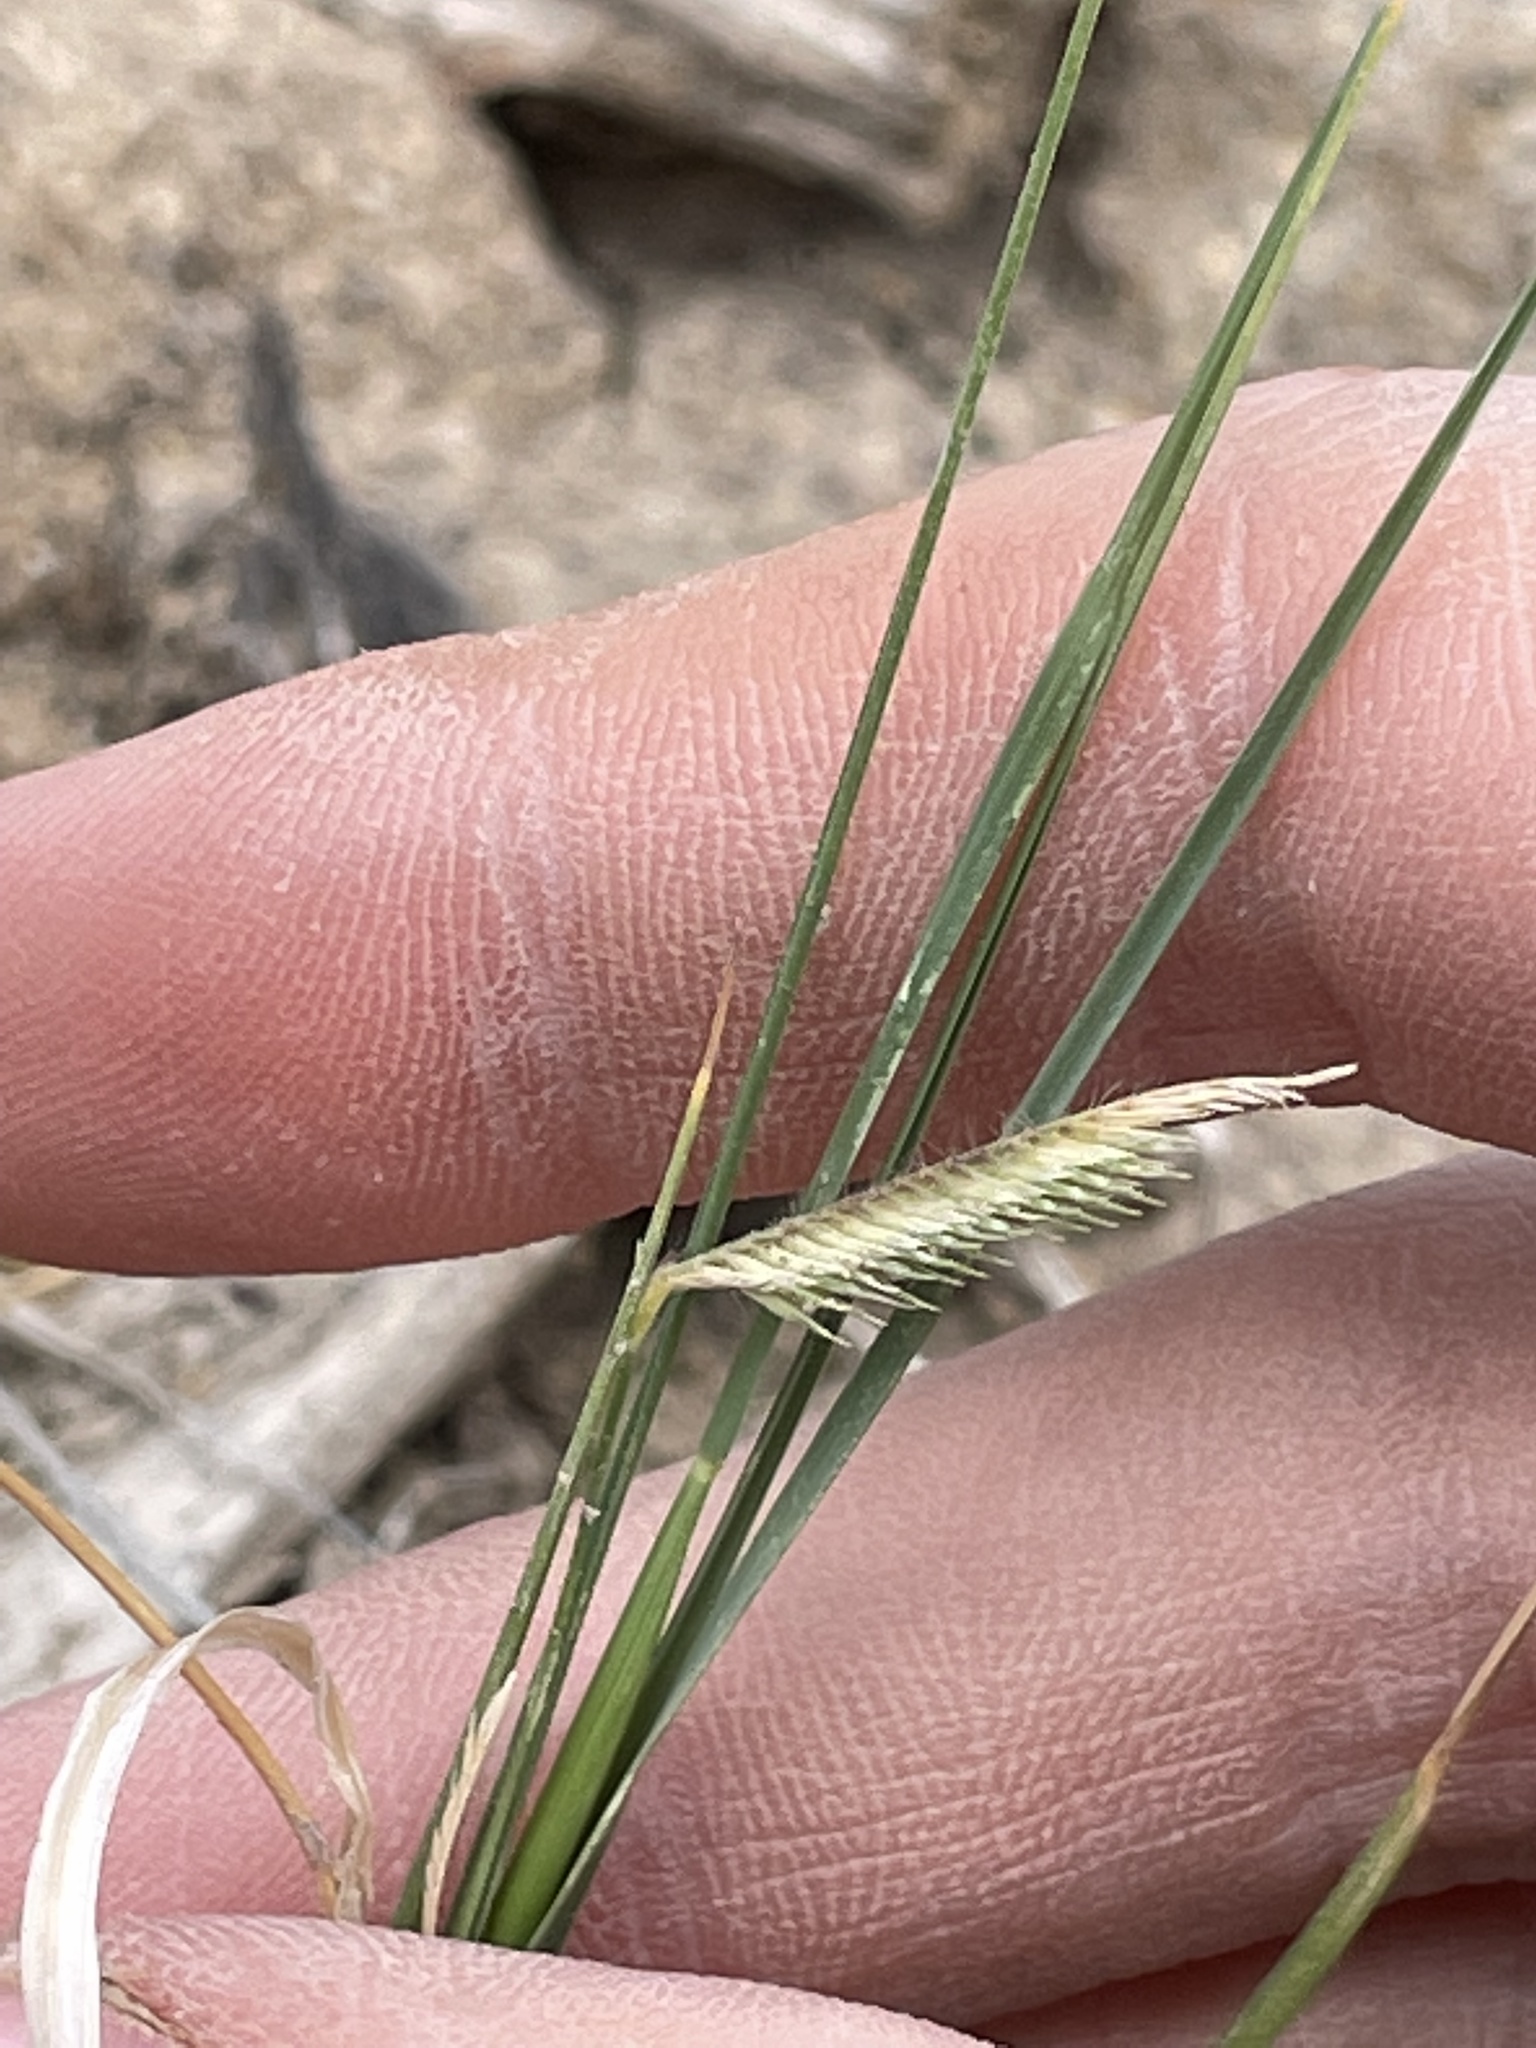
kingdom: Plantae
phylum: Tracheophyta
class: Liliopsida
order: Poales
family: Poaceae
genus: Bouteloua
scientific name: Bouteloua gracilis
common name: Blue grama
